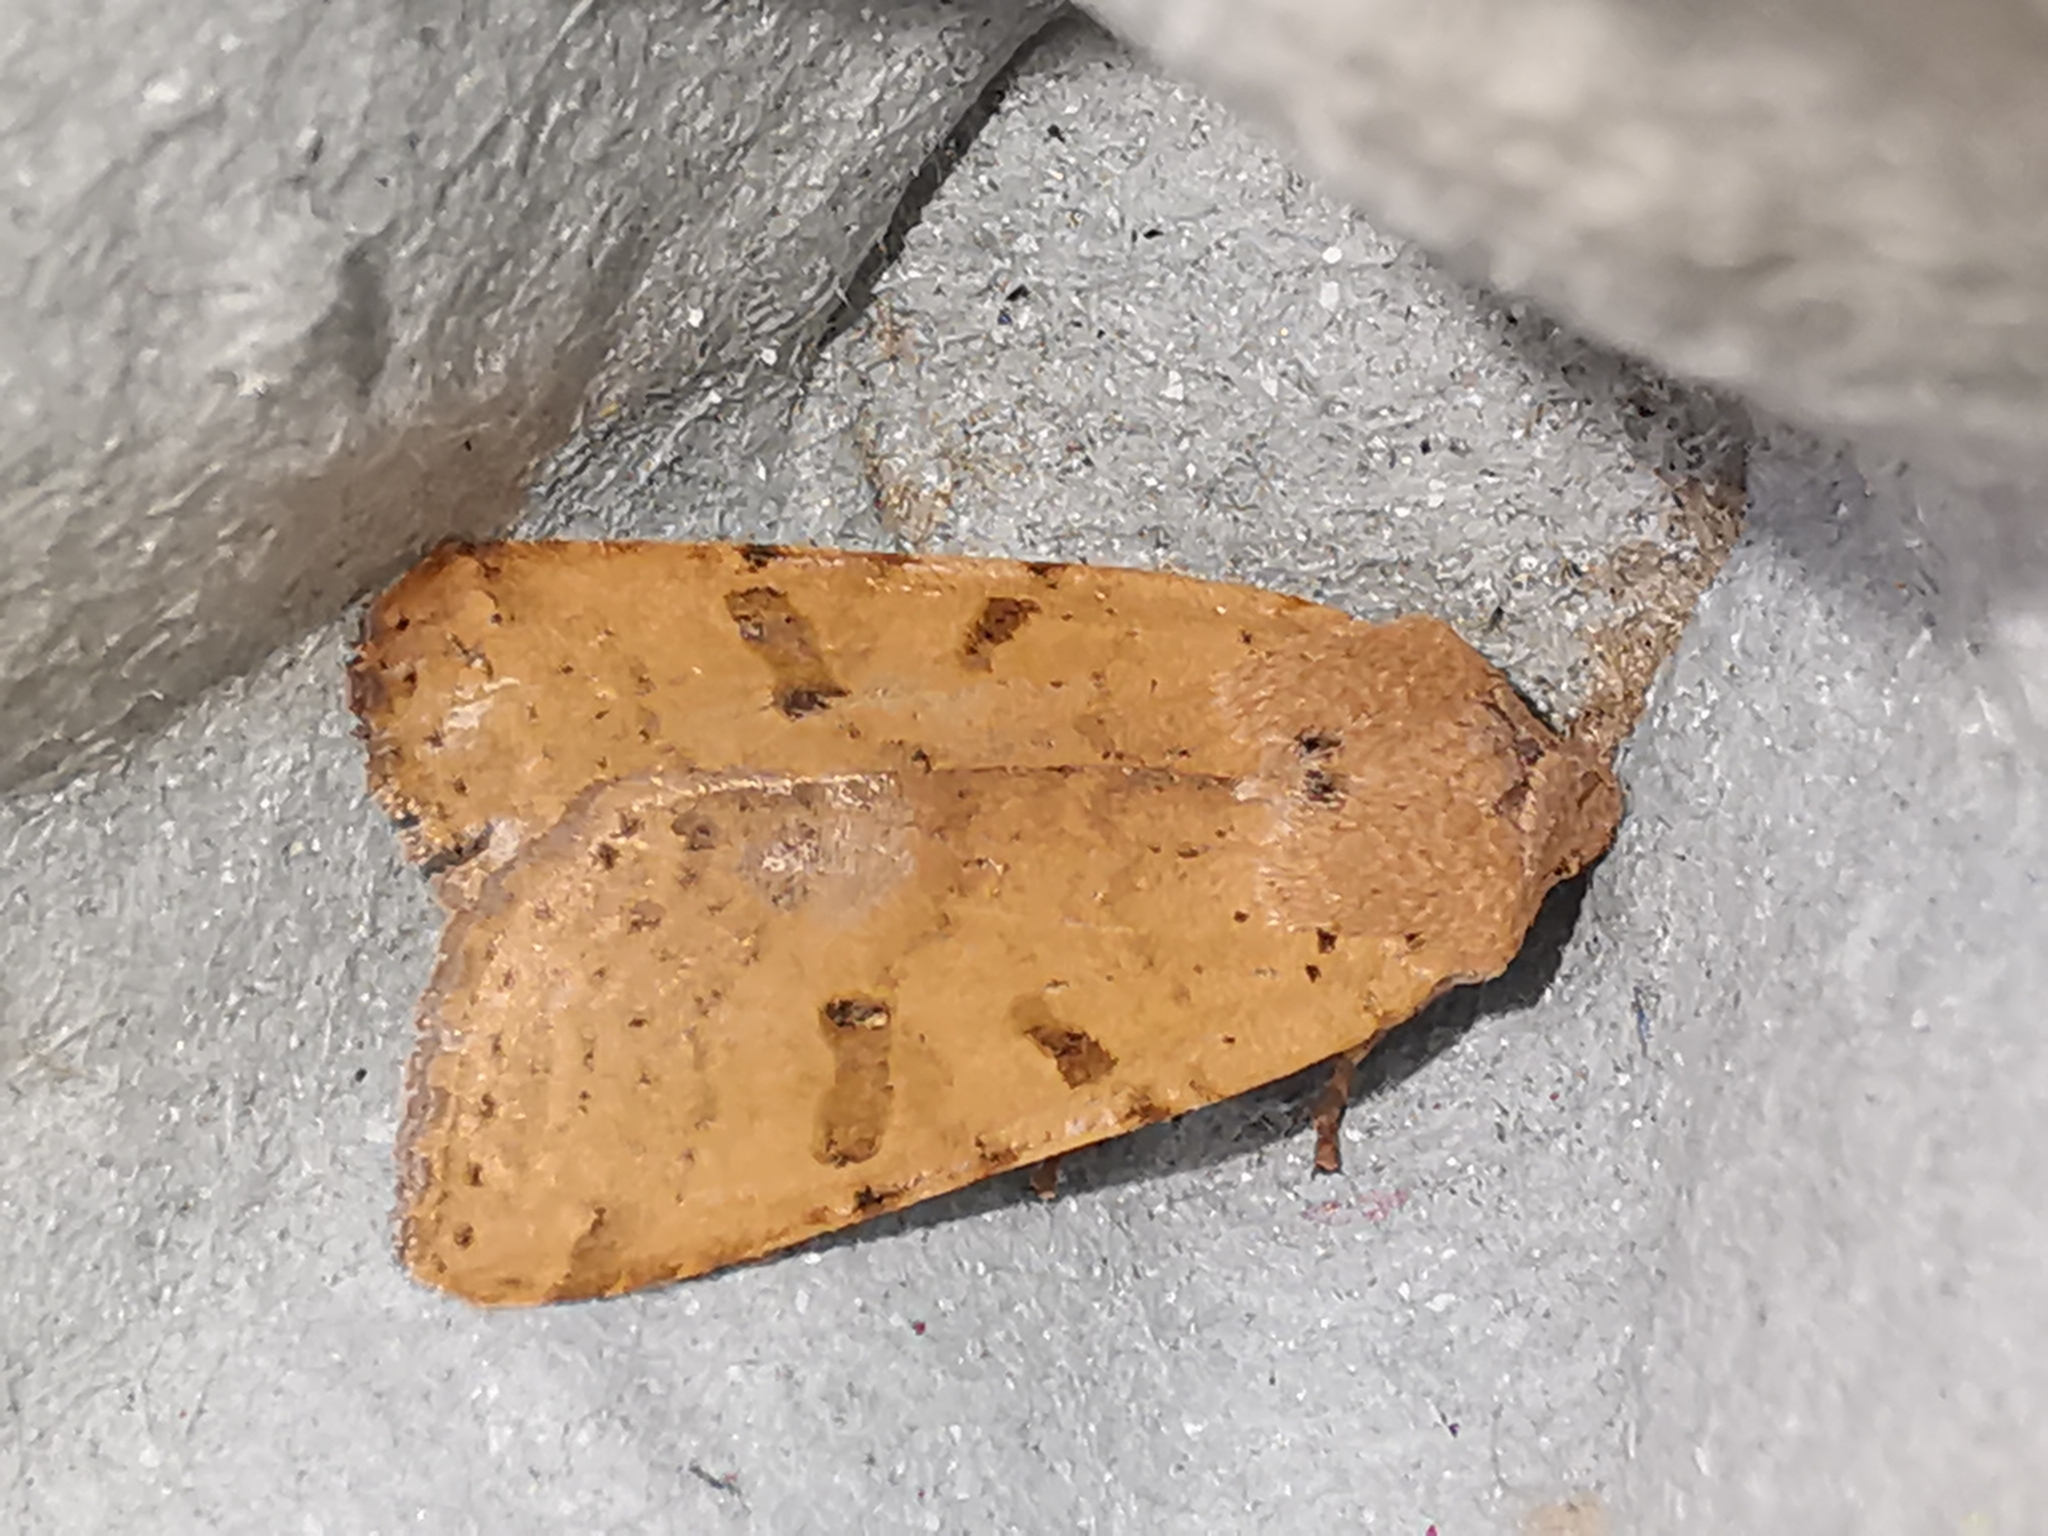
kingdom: Animalia
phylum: Arthropoda
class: Insecta
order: Lepidoptera
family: Noctuidae
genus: Agrochola
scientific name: Agrochola lychnidis
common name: Beaded chestnut
